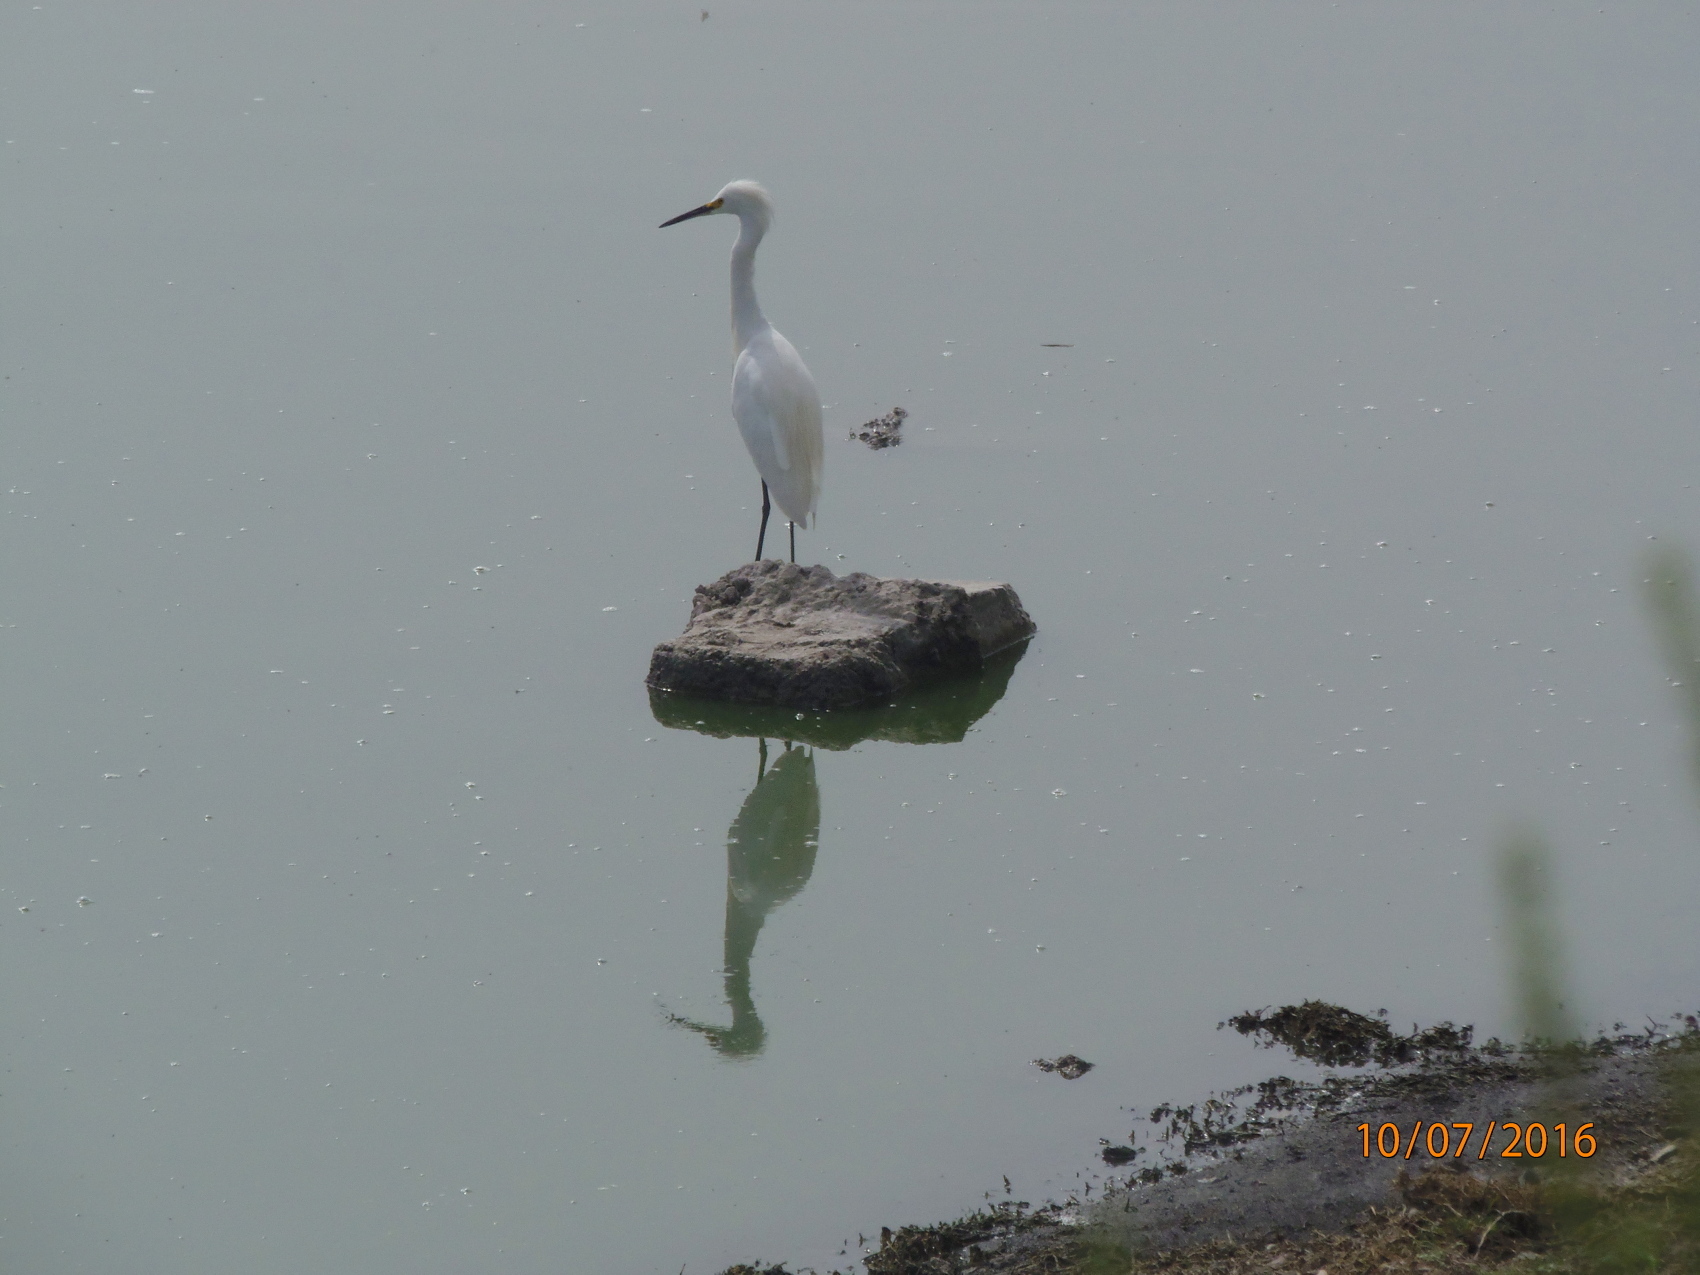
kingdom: Animalia
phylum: Chordata
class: Aves
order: Pelecaniformes
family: Ardeidae
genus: Egretta
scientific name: Egretta thula
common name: Snowy egret
